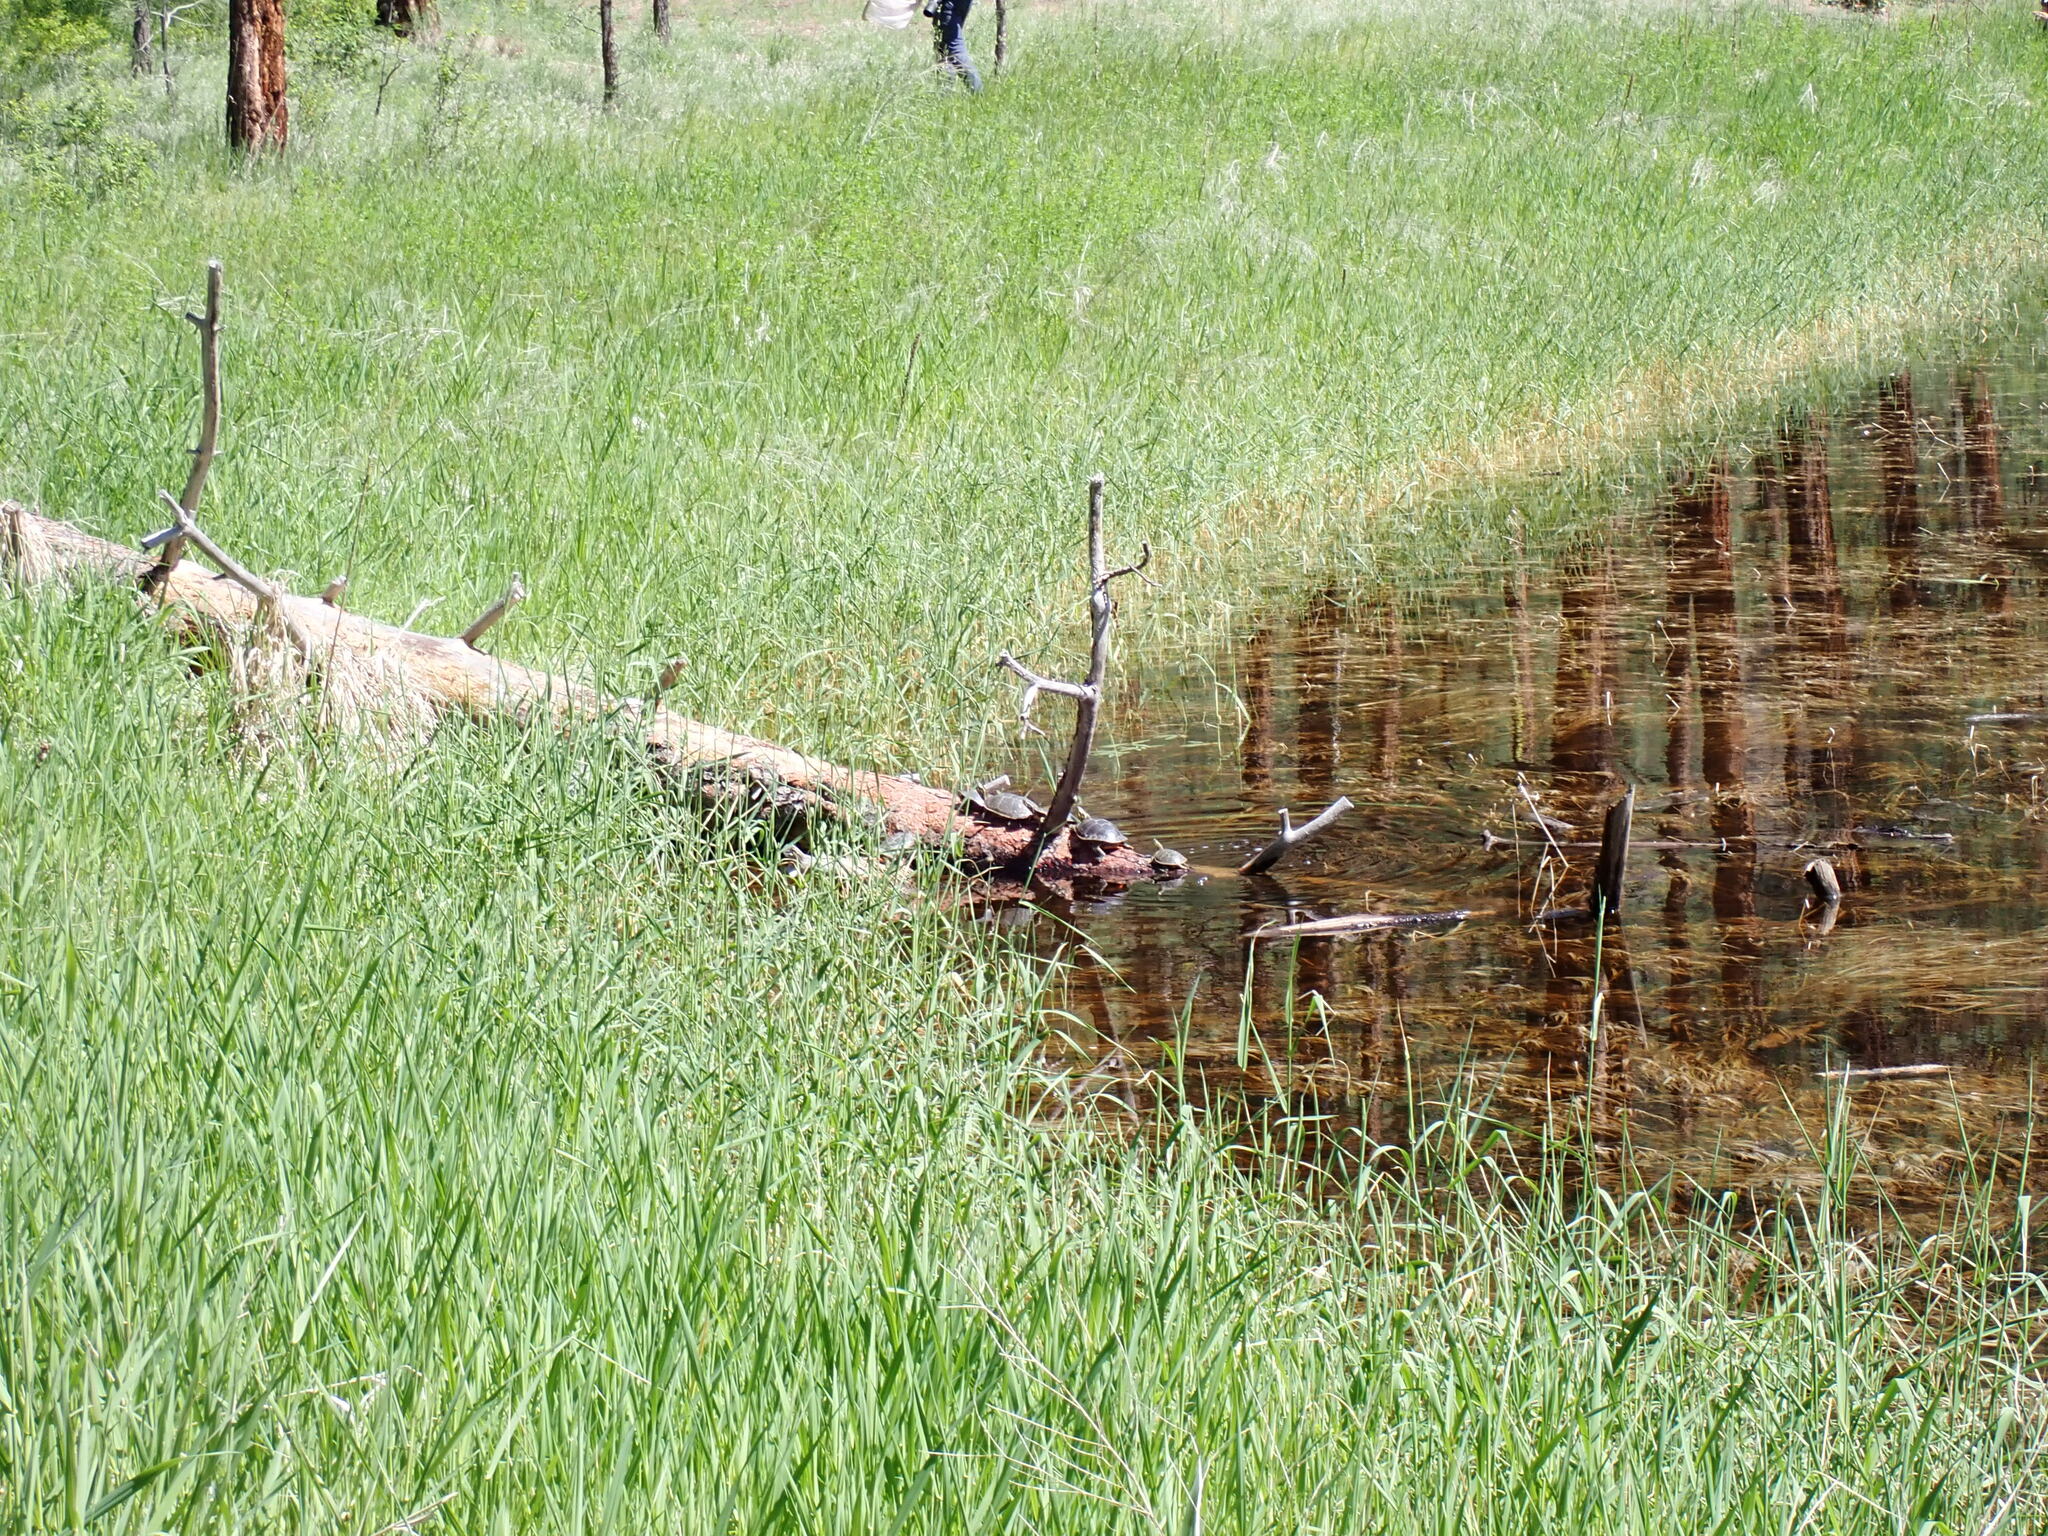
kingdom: Animalia
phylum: Chordata
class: Testudines
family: Emydidae
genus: Chrysemys
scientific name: Chrysemys picta
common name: Painted turtle
